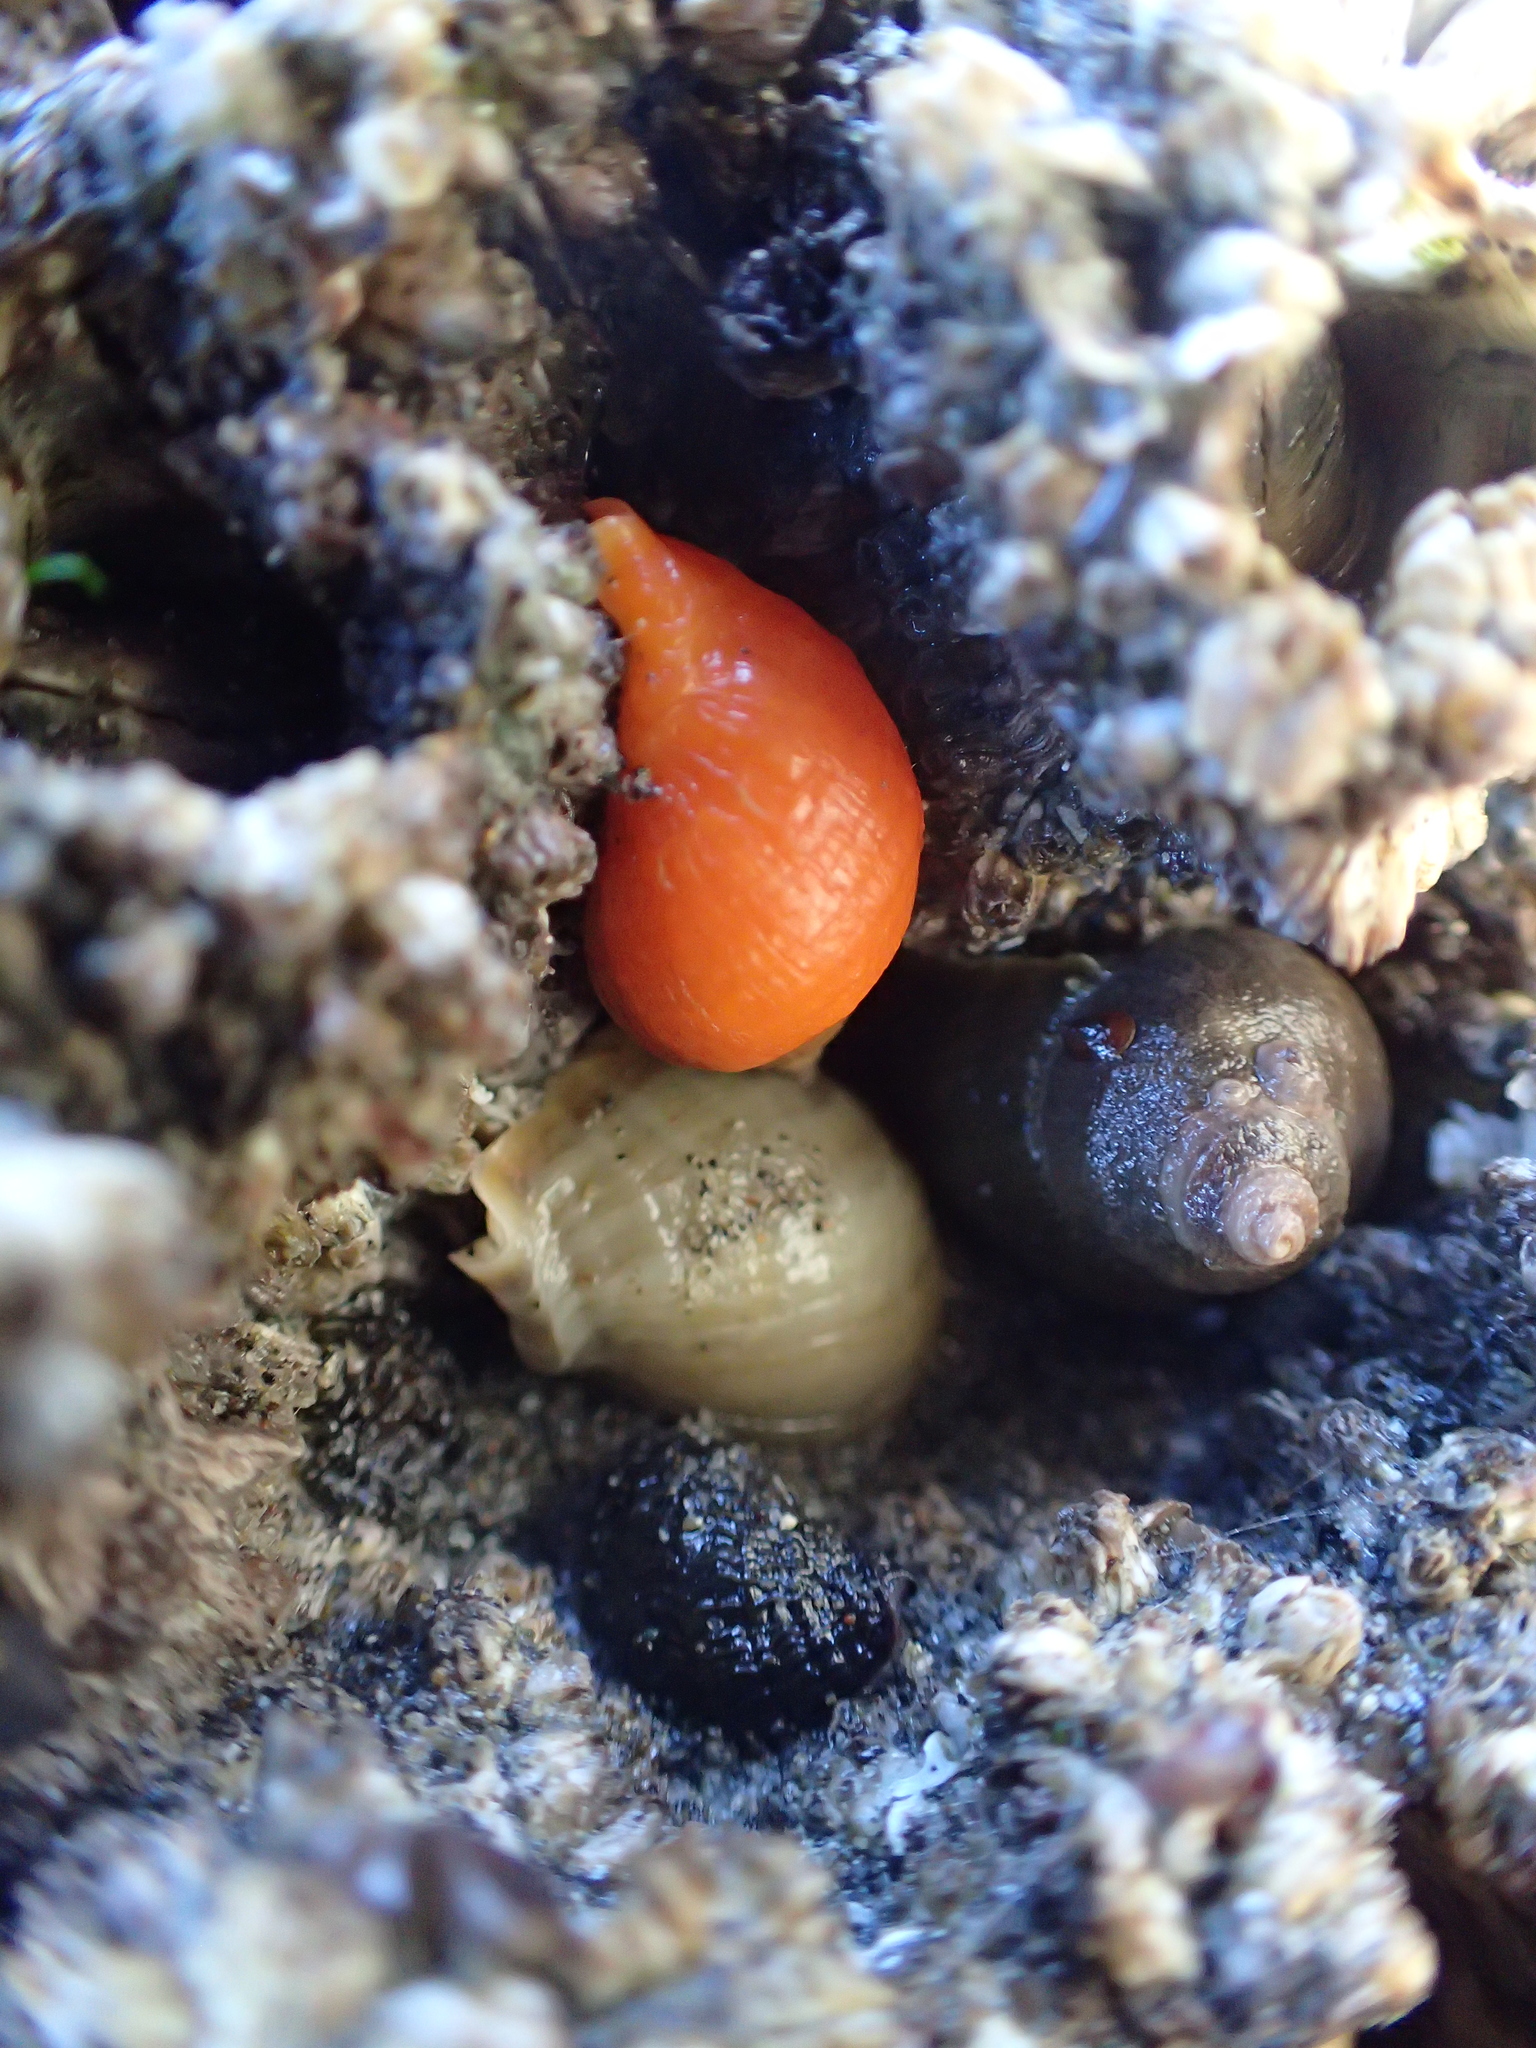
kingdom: Animalia
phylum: Mollusca
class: Gastropoda
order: Neogastropoda
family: Muricidae
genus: Nucella
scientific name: Nucella ostrina
